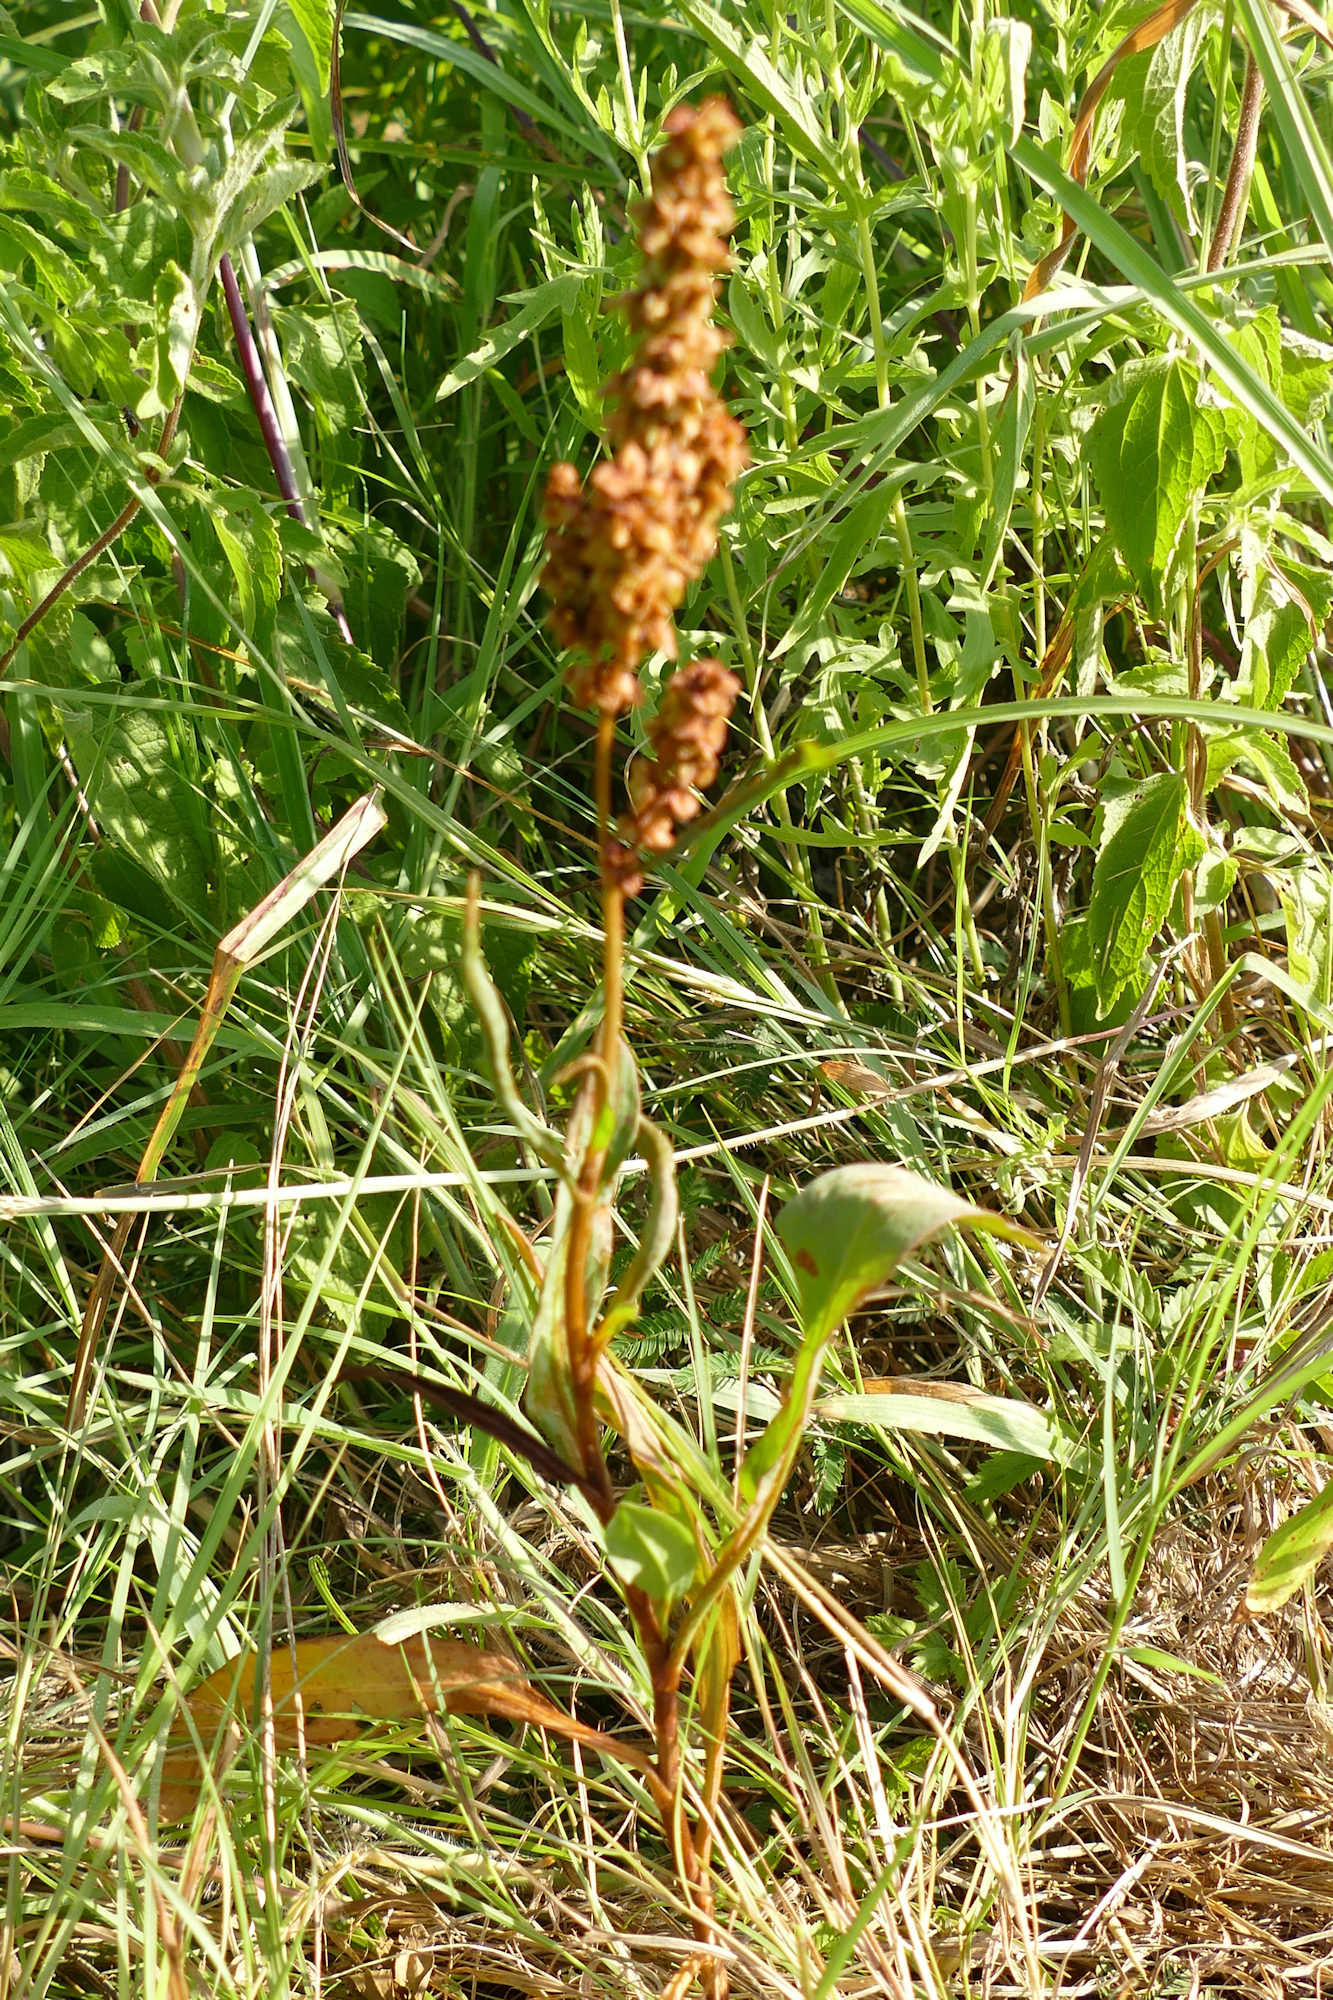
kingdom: Plantae
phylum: Tracheophyta
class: Magnoliopsida
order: Caryophyllales
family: Polygonaceae
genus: Rumex
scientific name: Rumex crispus
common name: Curled dock
